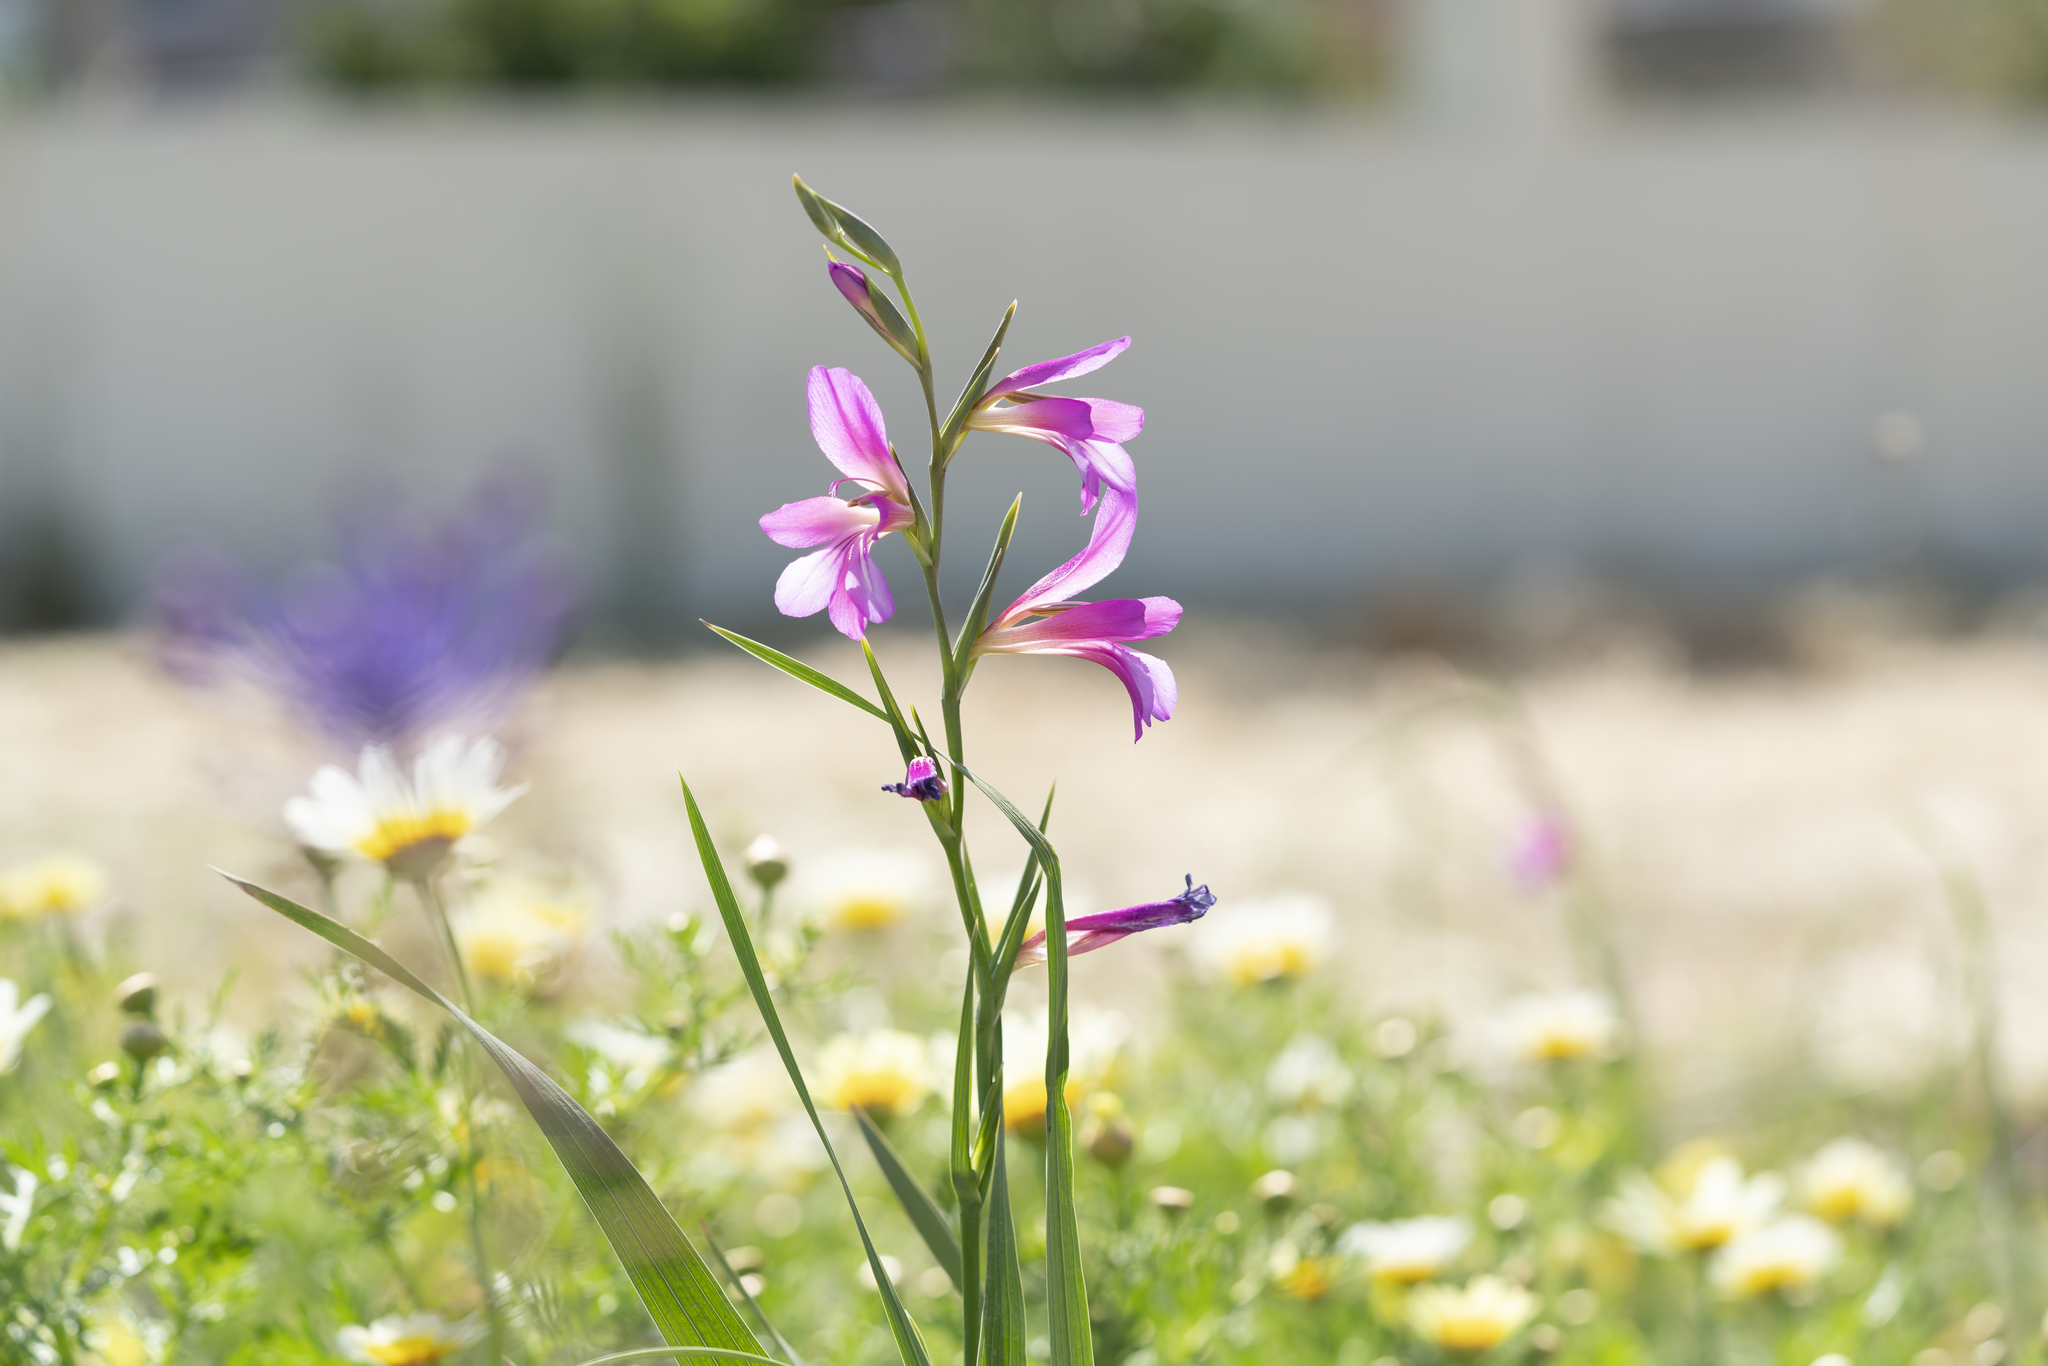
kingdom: Plantae
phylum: Tracheophyta
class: Liliopsida
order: Asparagales
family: Iridaceae
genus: Gladiolus
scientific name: Gladiolus italicus
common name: Field gladiolus
